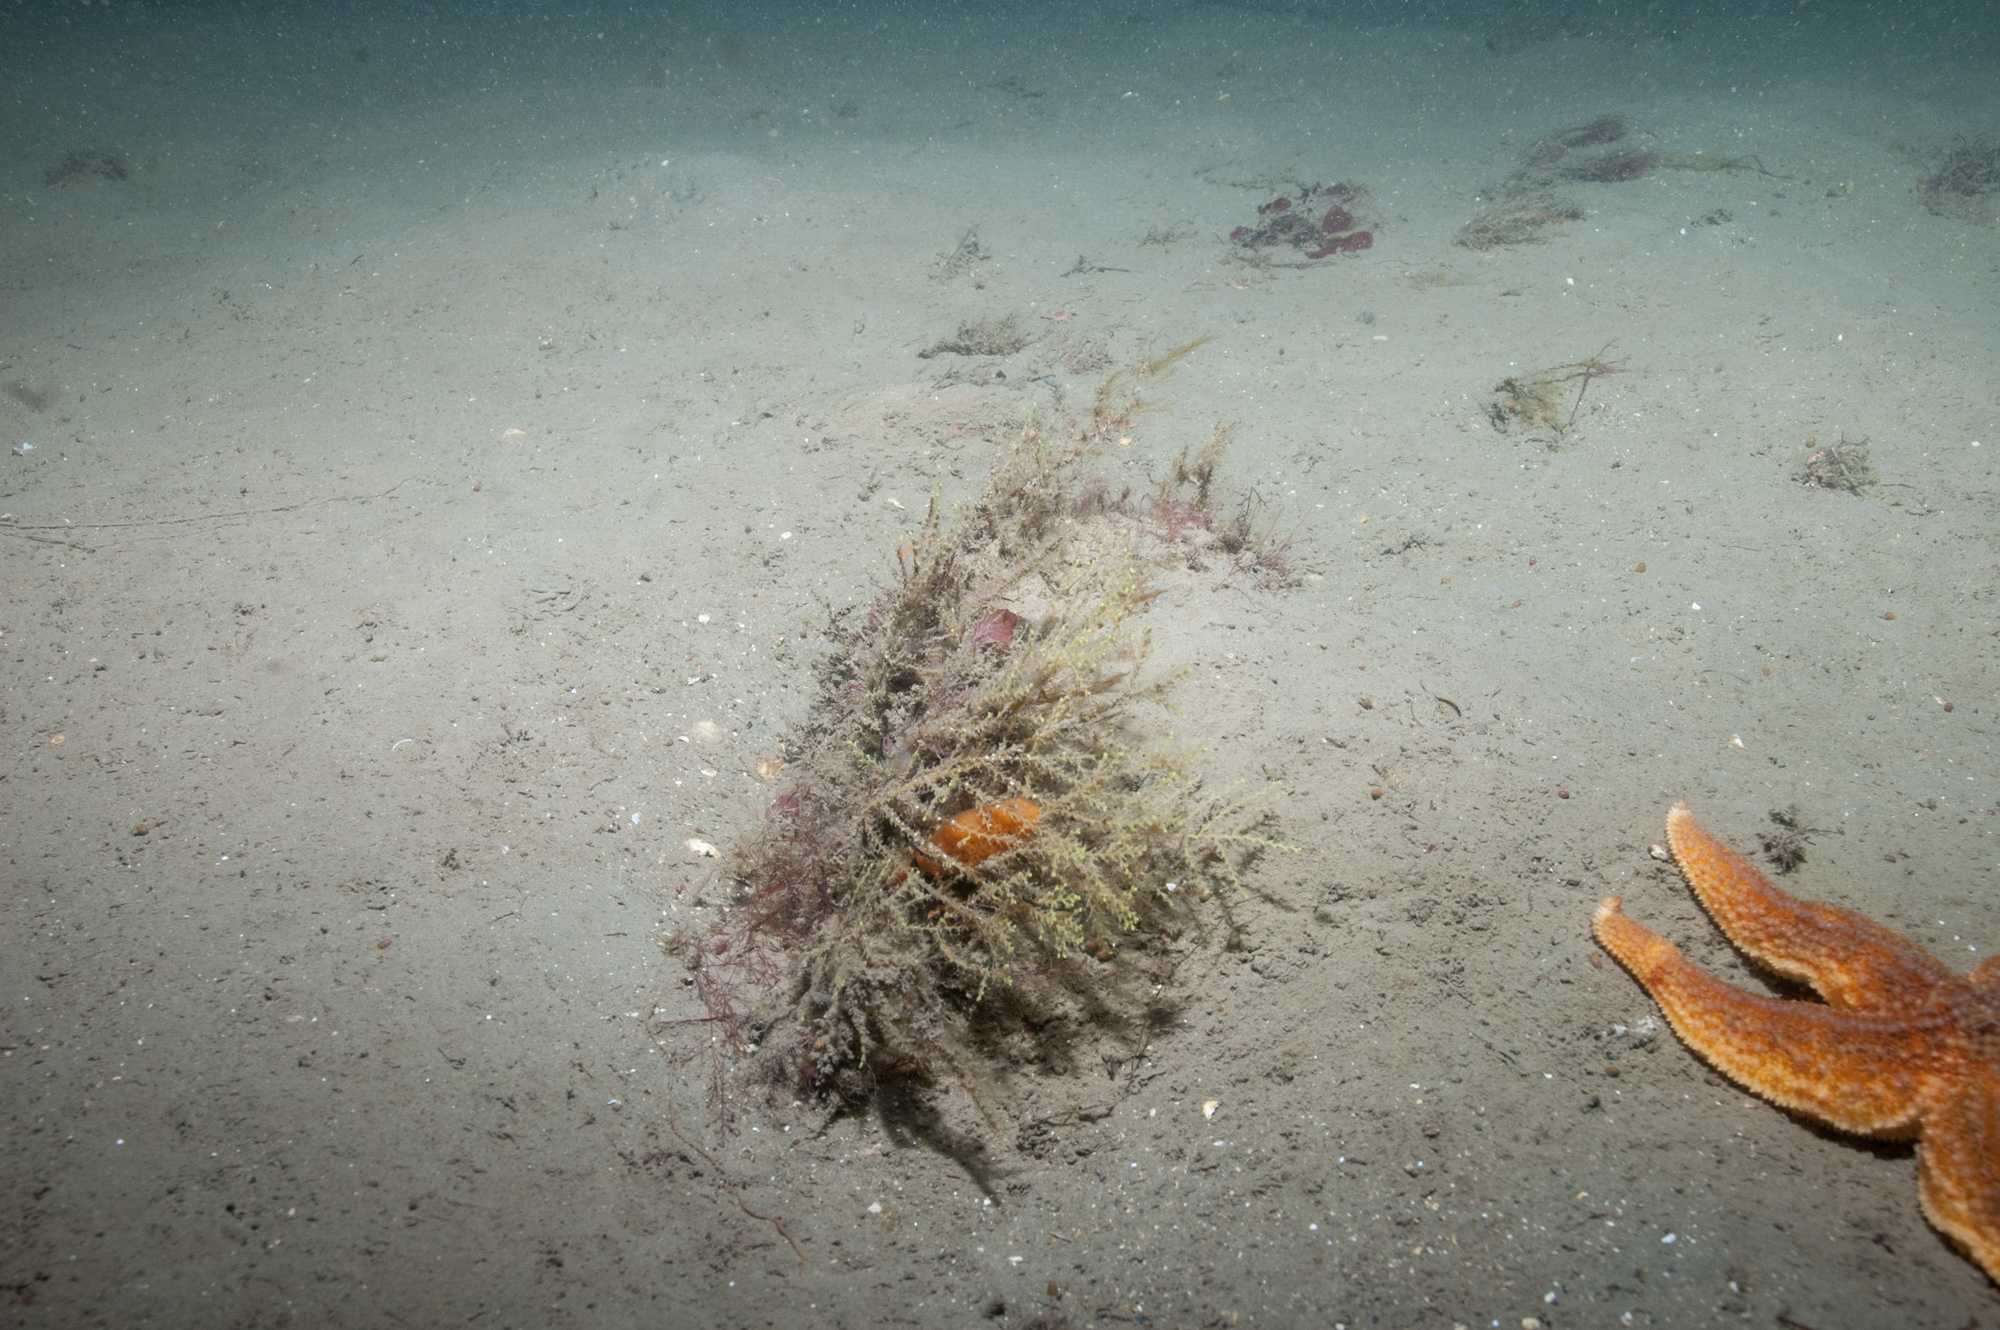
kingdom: Animalia
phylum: Cnidaria
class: Hydrozoa
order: Leptothecata
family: Sertularellidae
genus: Sertularella
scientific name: Sertularella gayi
